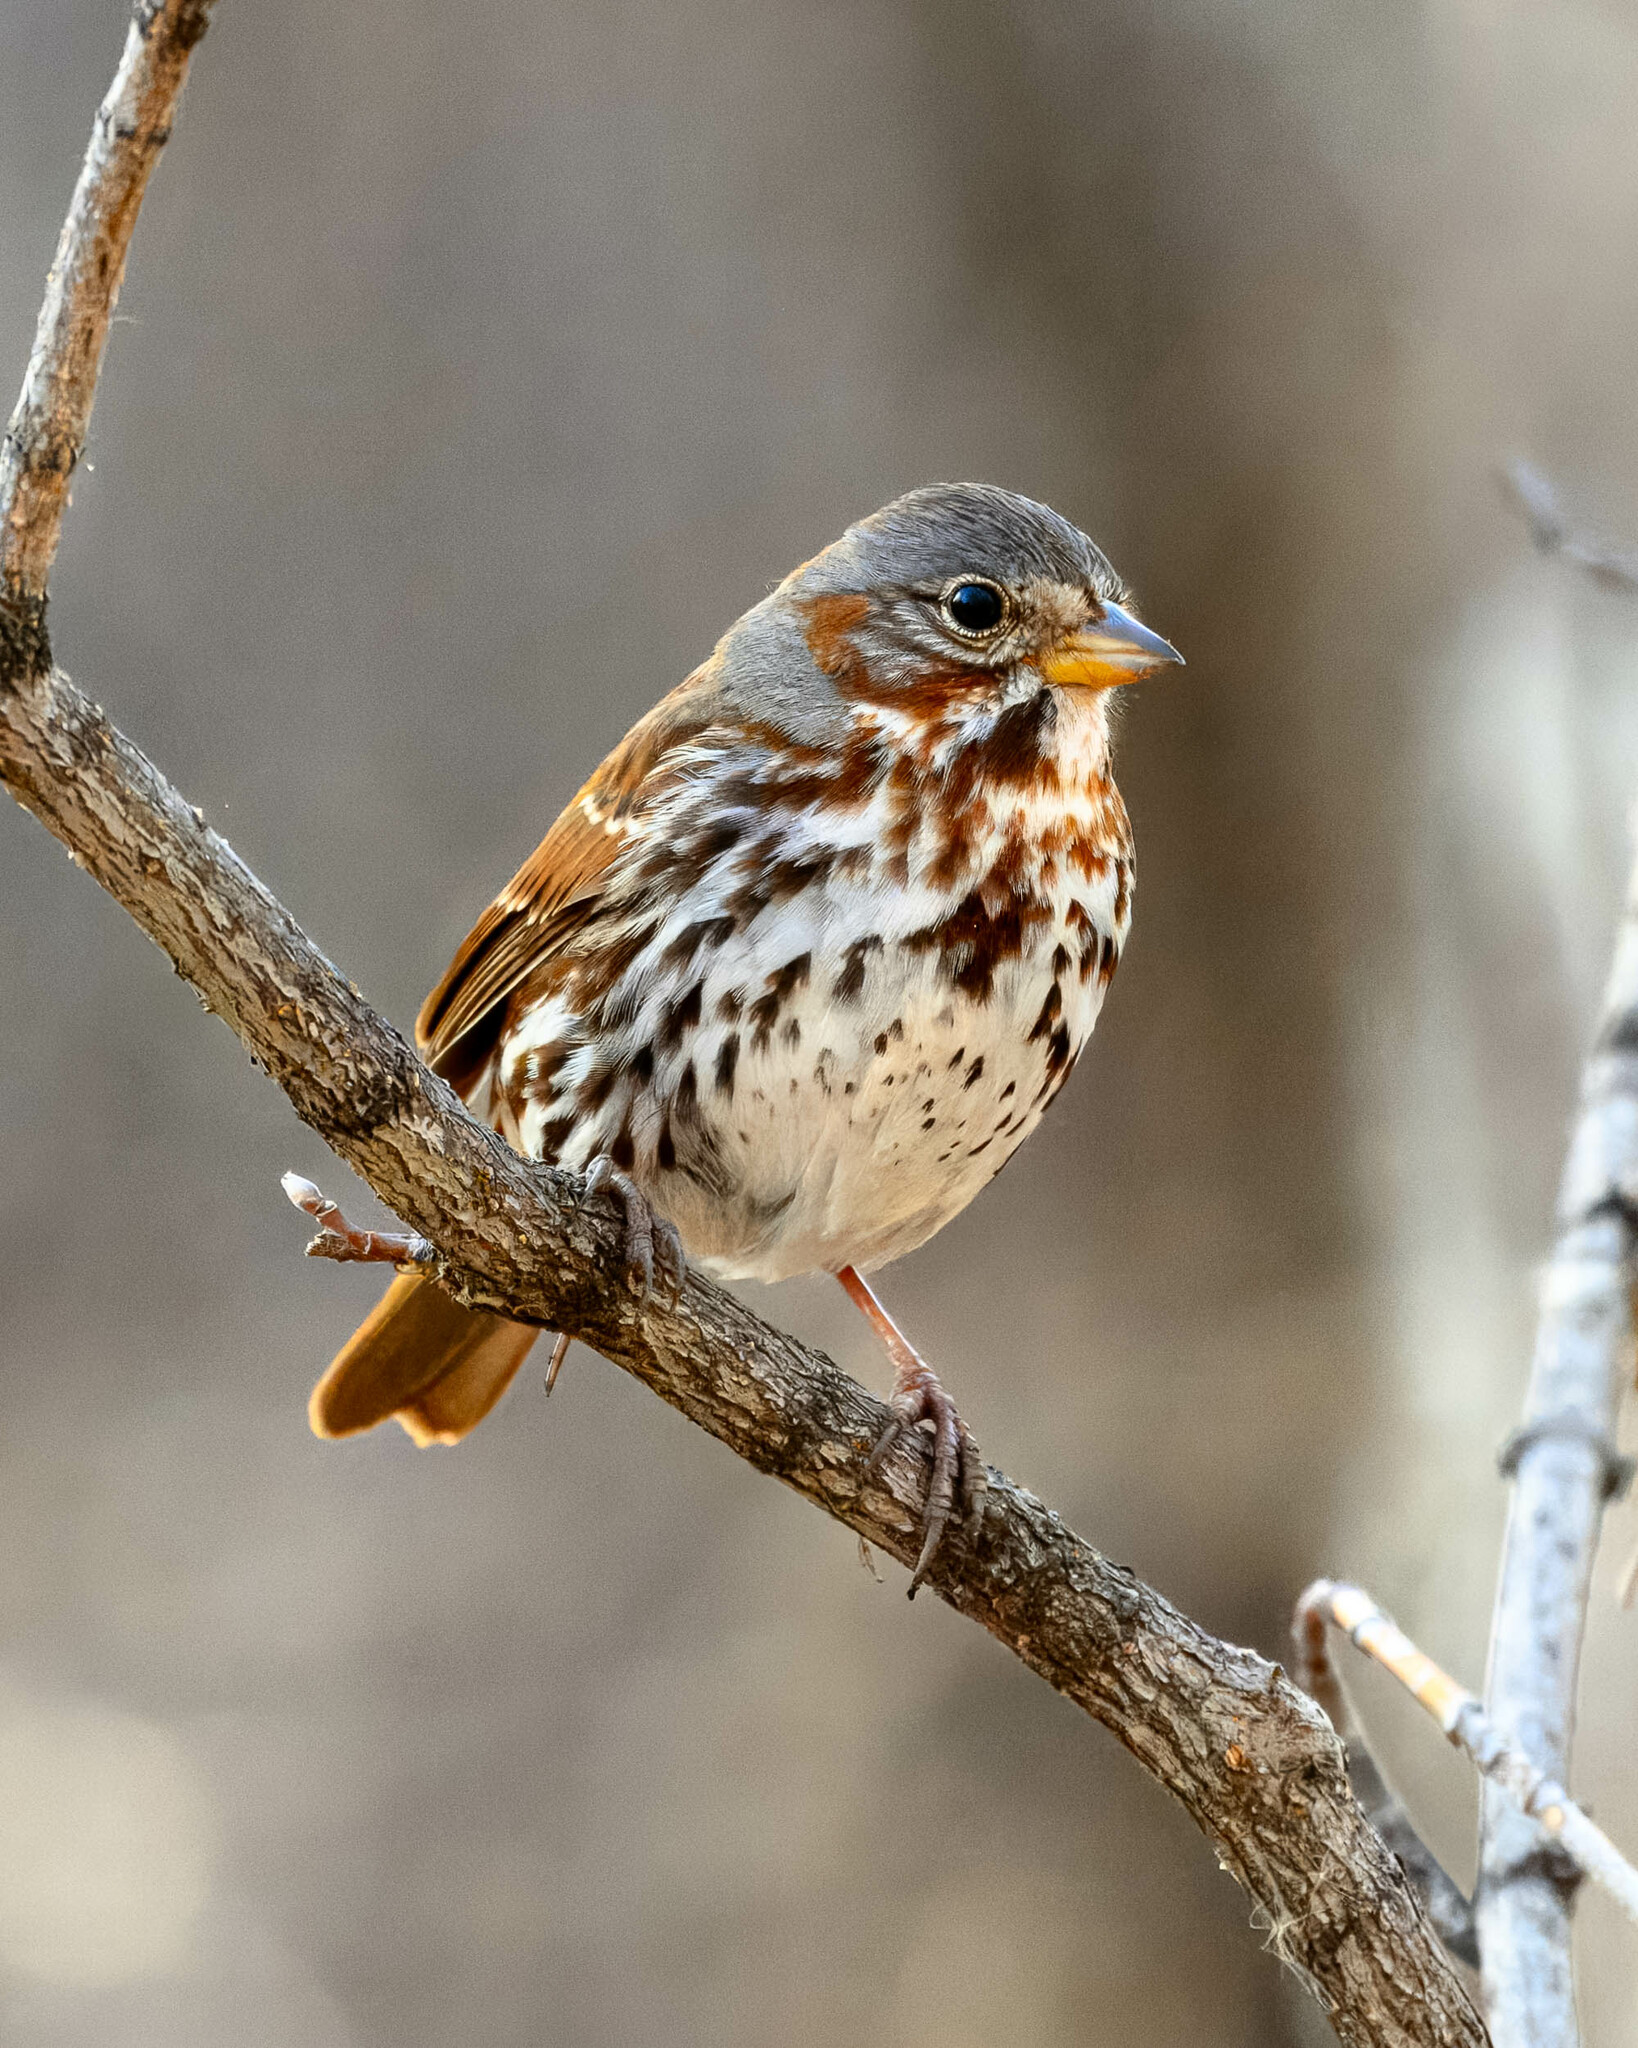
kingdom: Animalia
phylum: Chordata
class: Aves
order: Passeriformes
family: Passerellidae
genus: Passerella
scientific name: Passerella iliaca
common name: Fox sparrow
